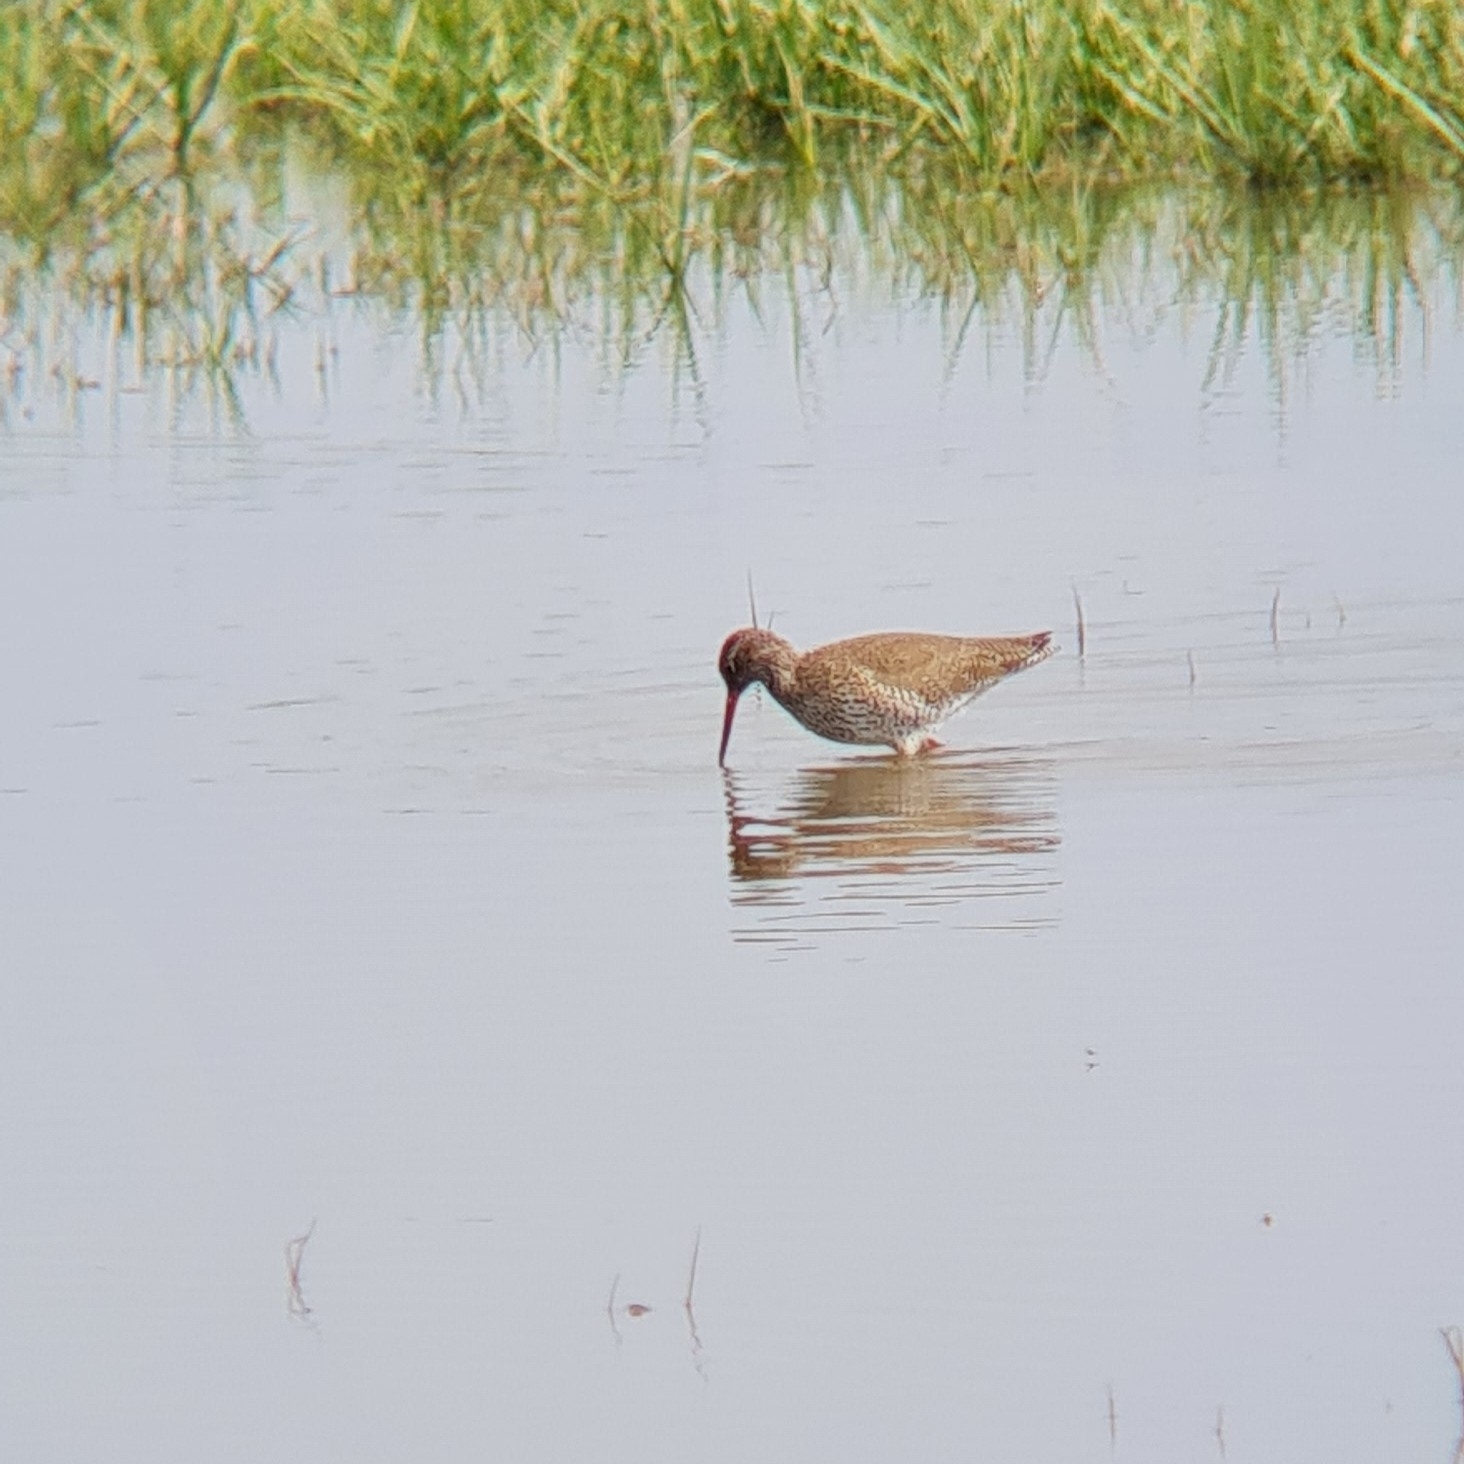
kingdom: Animalia
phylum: Chordata
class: Aves
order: Charadriiformes
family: Scolopacidae
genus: Tringa
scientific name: Tringa totanus
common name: Common redshank
